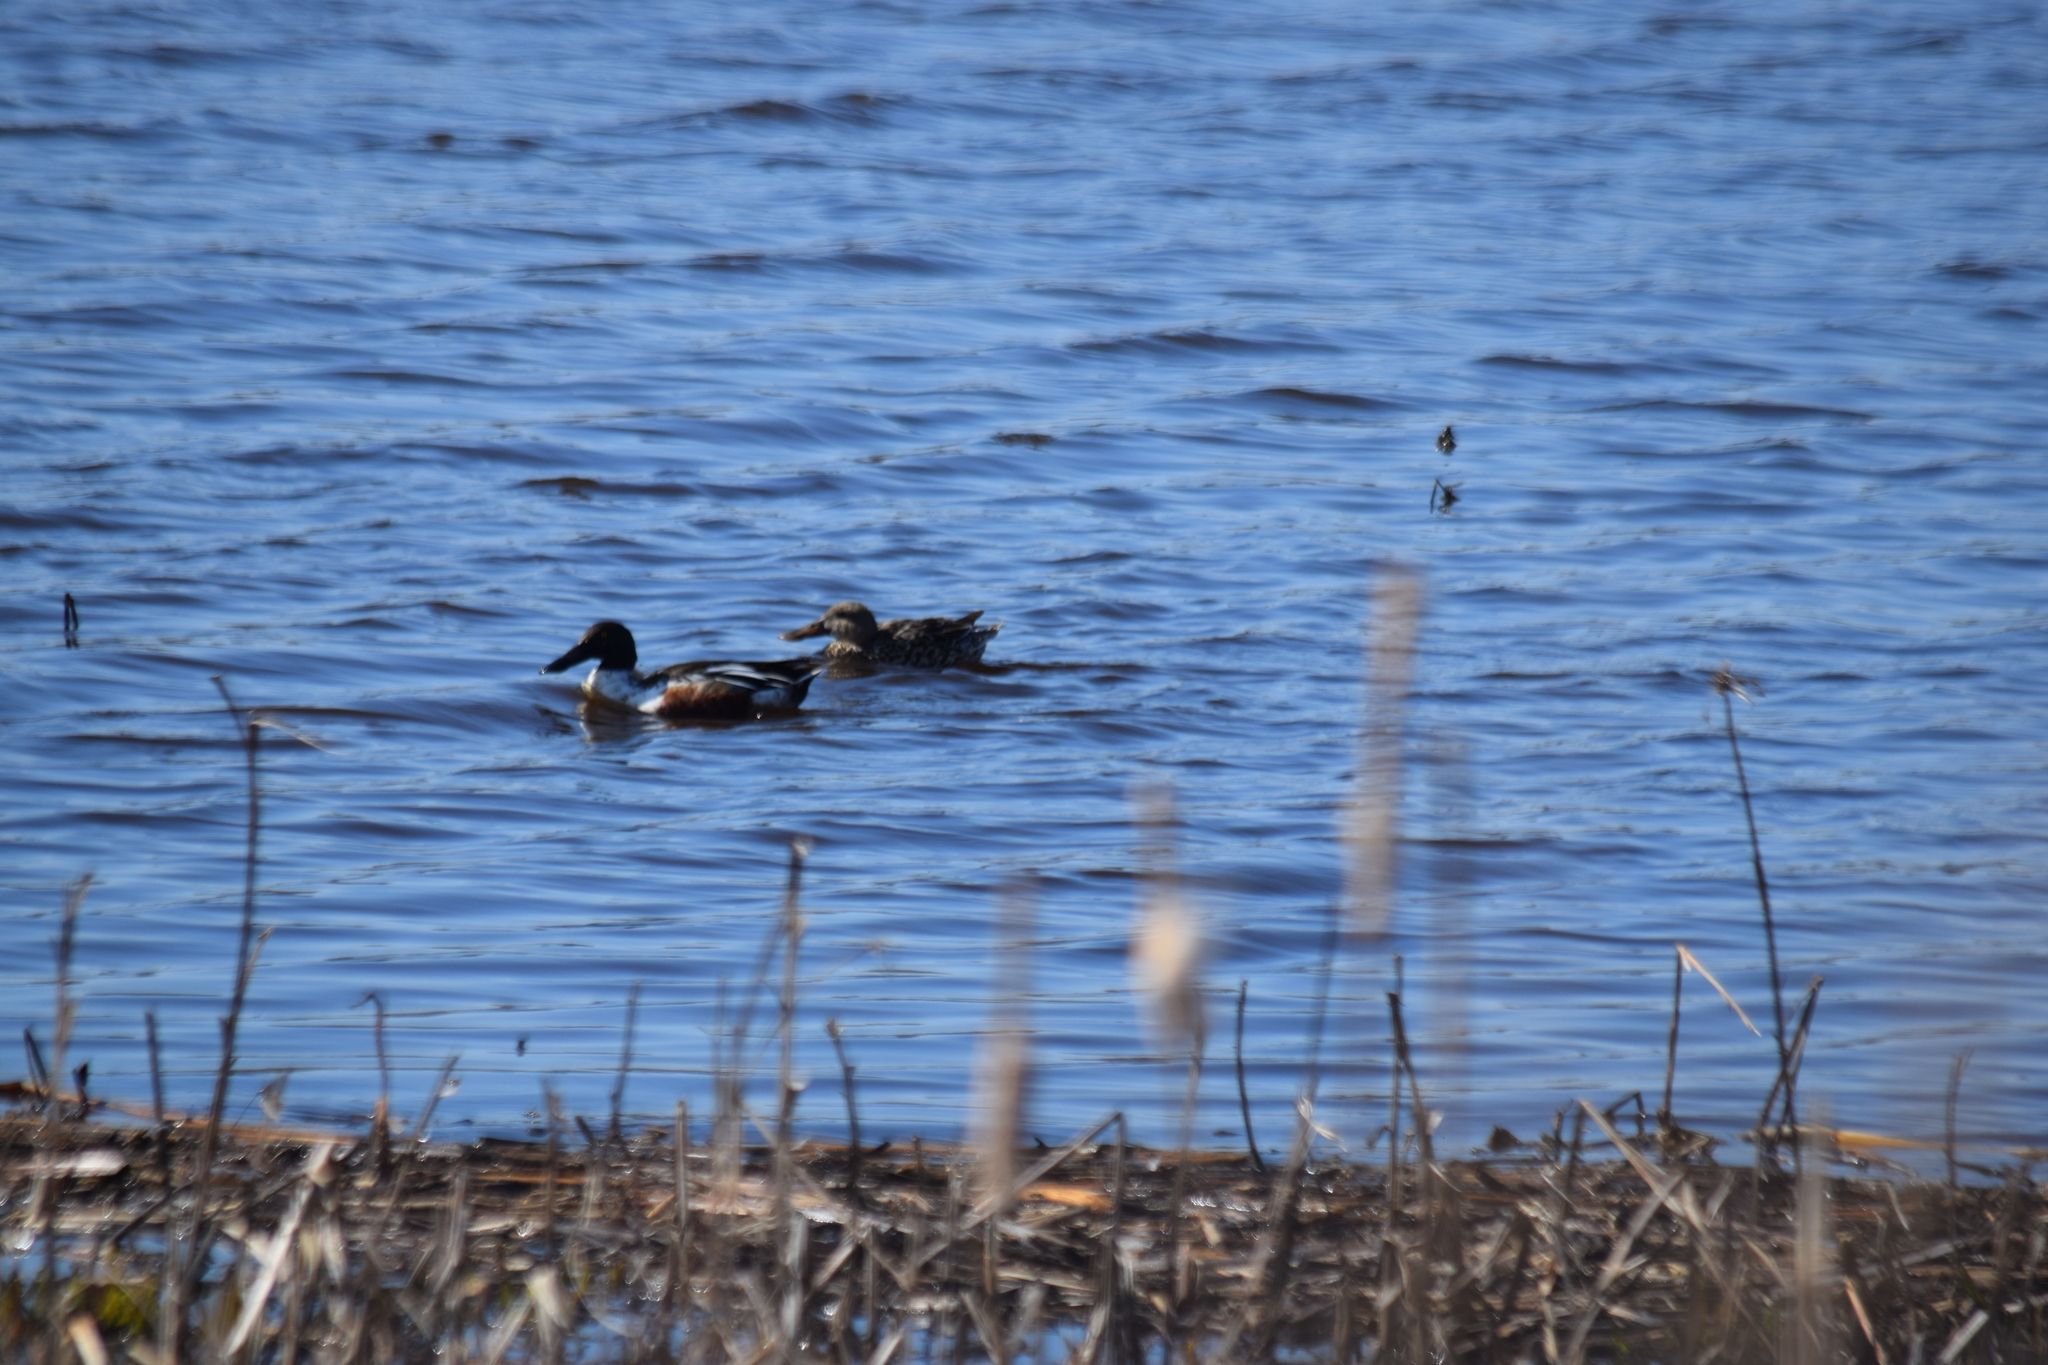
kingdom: Animalia
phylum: Chordata
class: Aves
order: Anseriformes
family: Anatidae
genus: Spatula
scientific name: Spatula clypeata
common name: Northern shoveler
